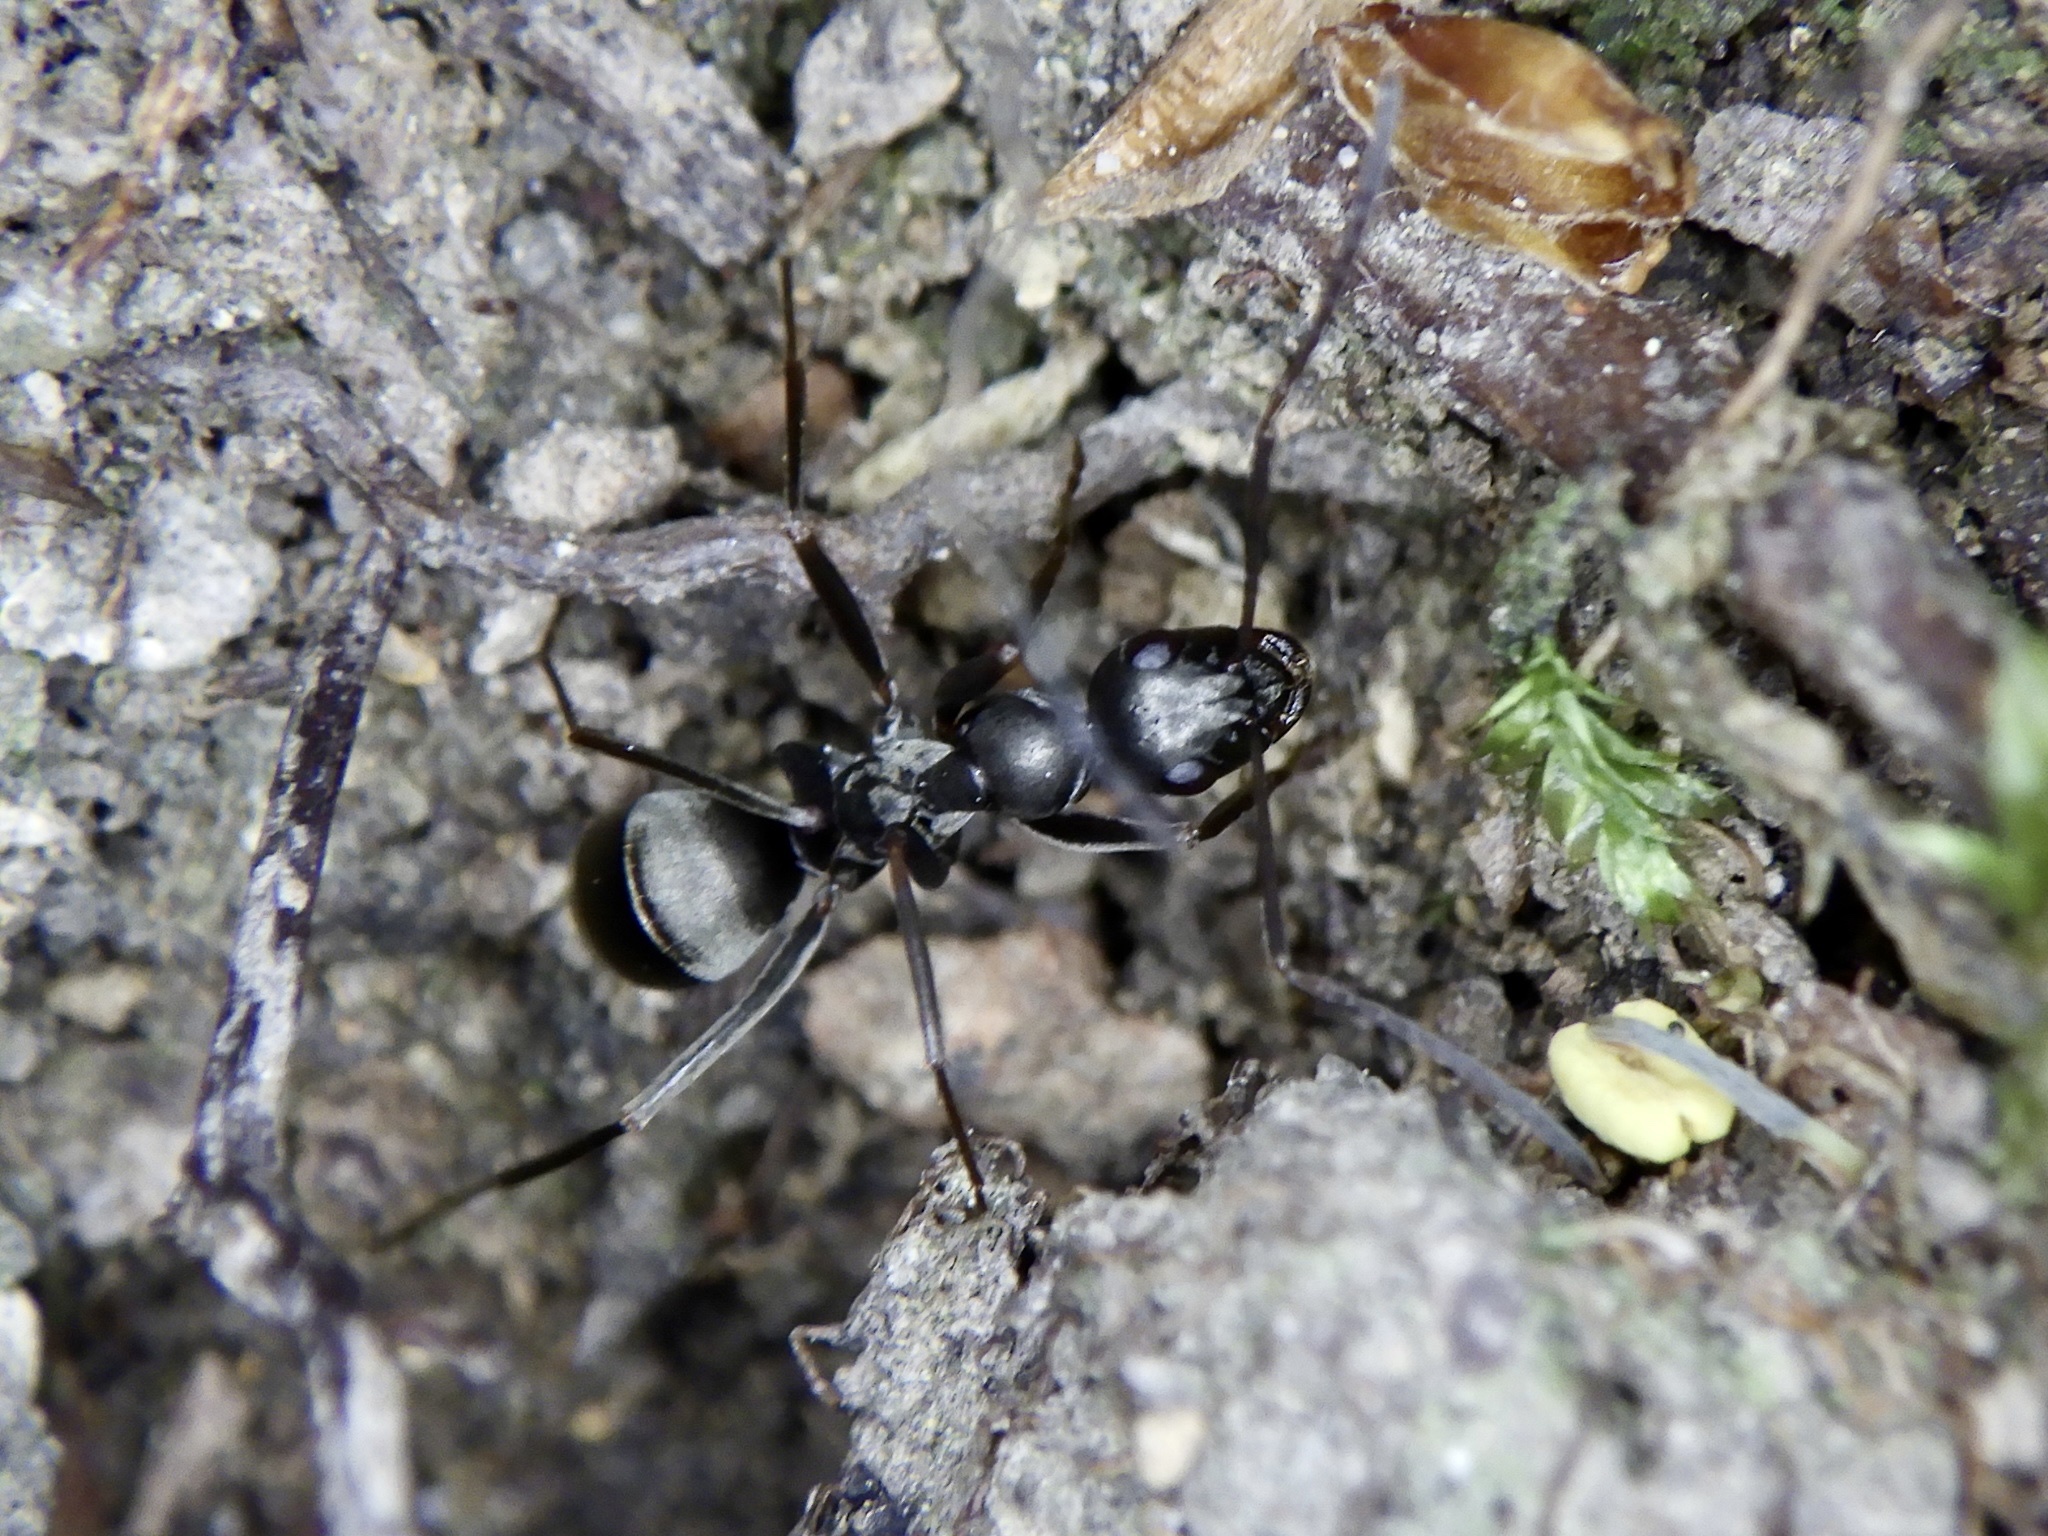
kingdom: Animalia
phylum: Arthropoda
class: Insecta
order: Hymenoptera
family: Formicidae
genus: Formica
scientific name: Formica hayashi
